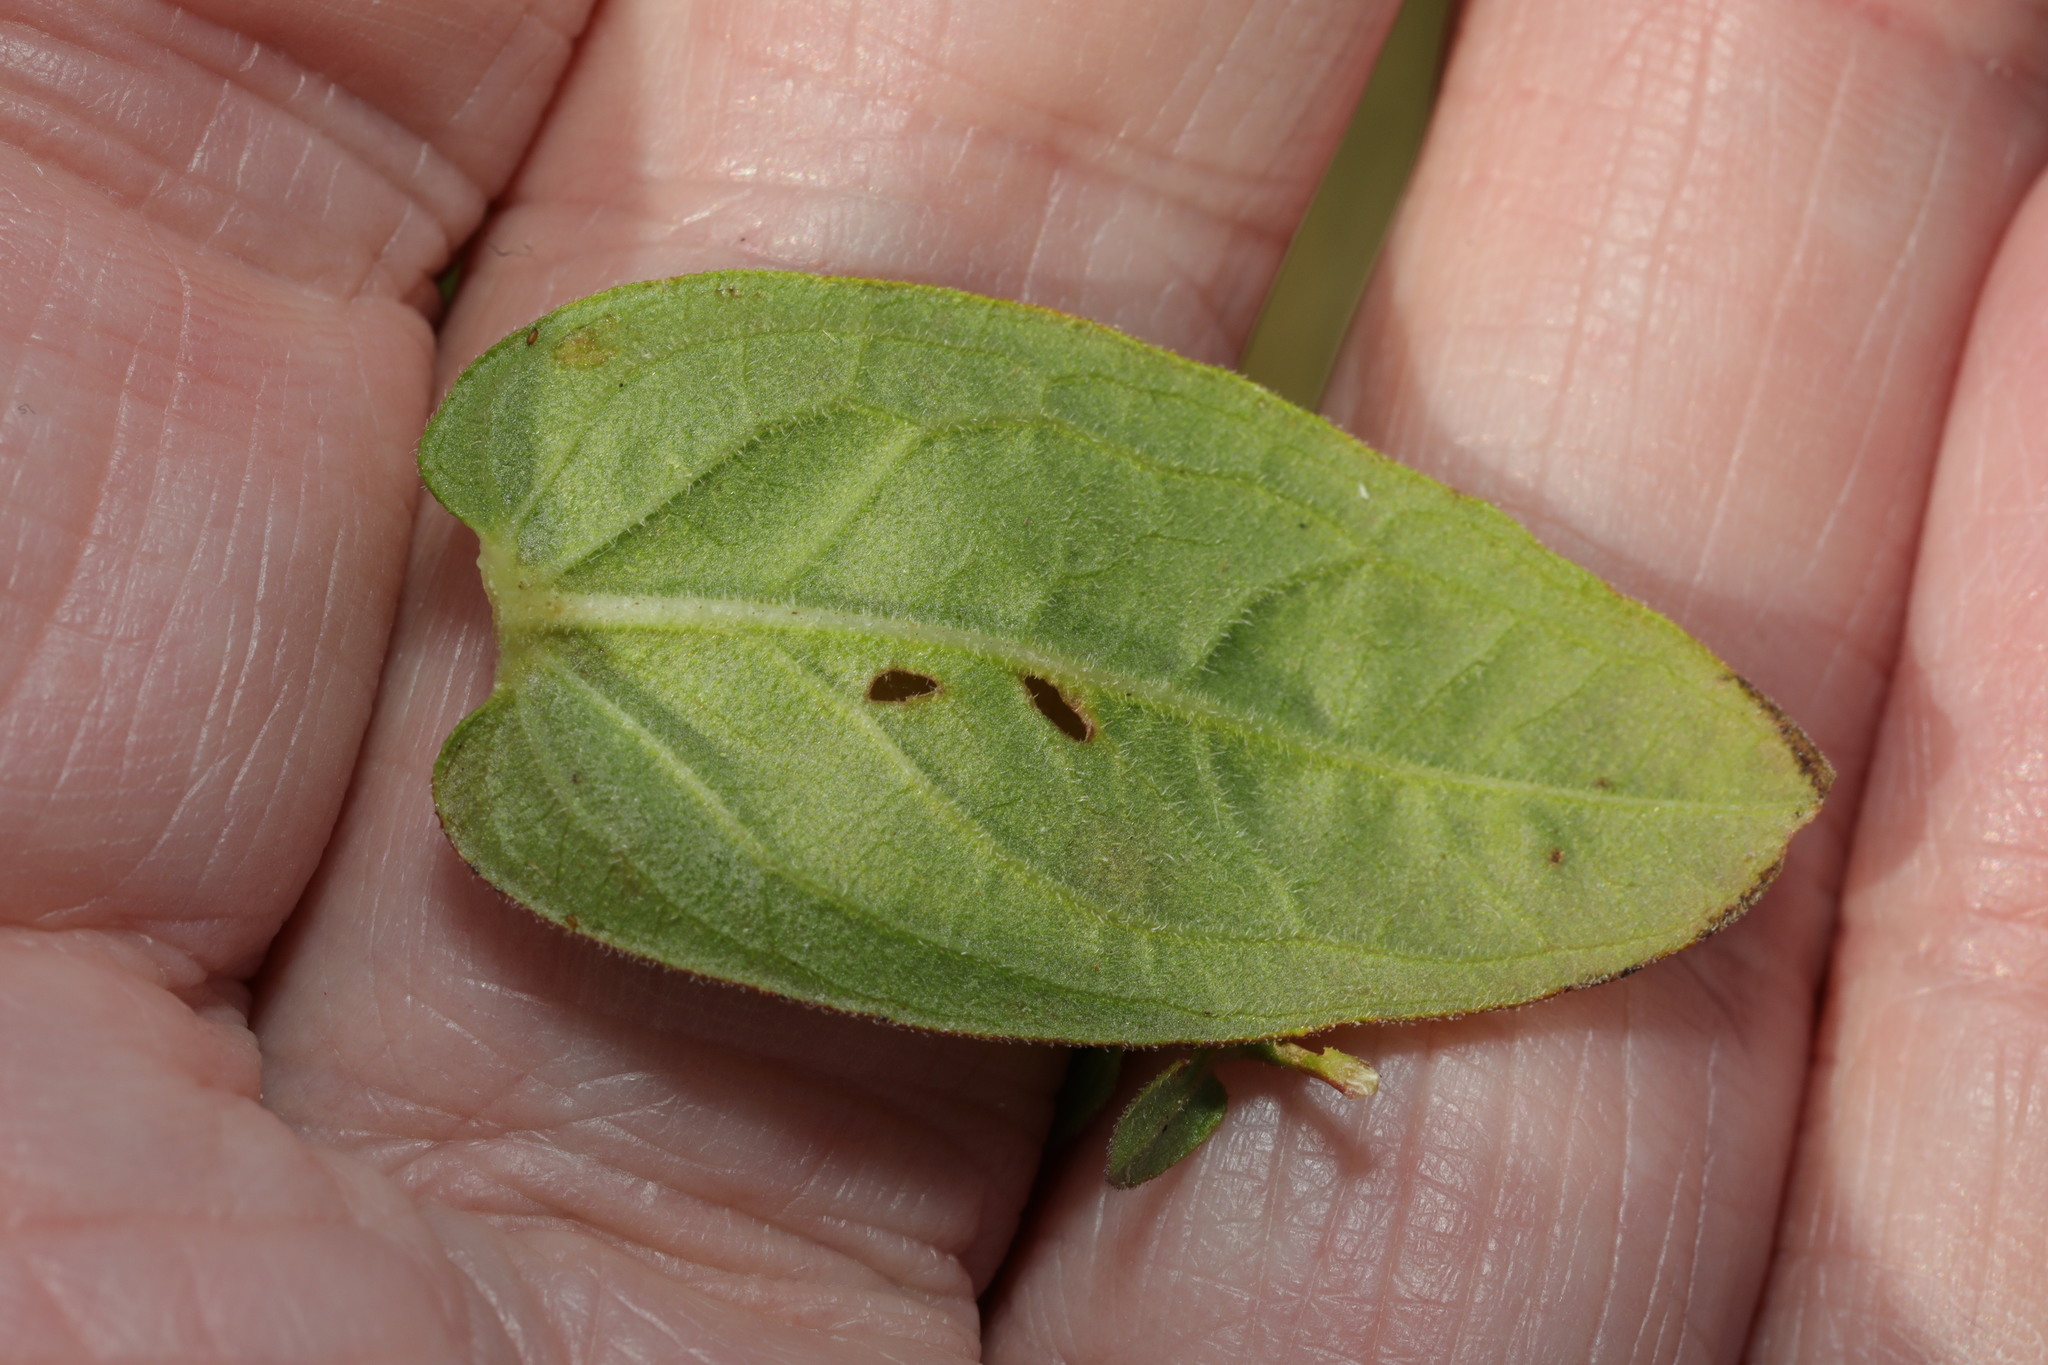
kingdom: Plantae
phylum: Tracheophyta
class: Magnoliopsida
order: Malpighiales
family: Hypericaceae
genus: Hypericum
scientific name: Hypericum hirsutum
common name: Hairy st. john's-wort
